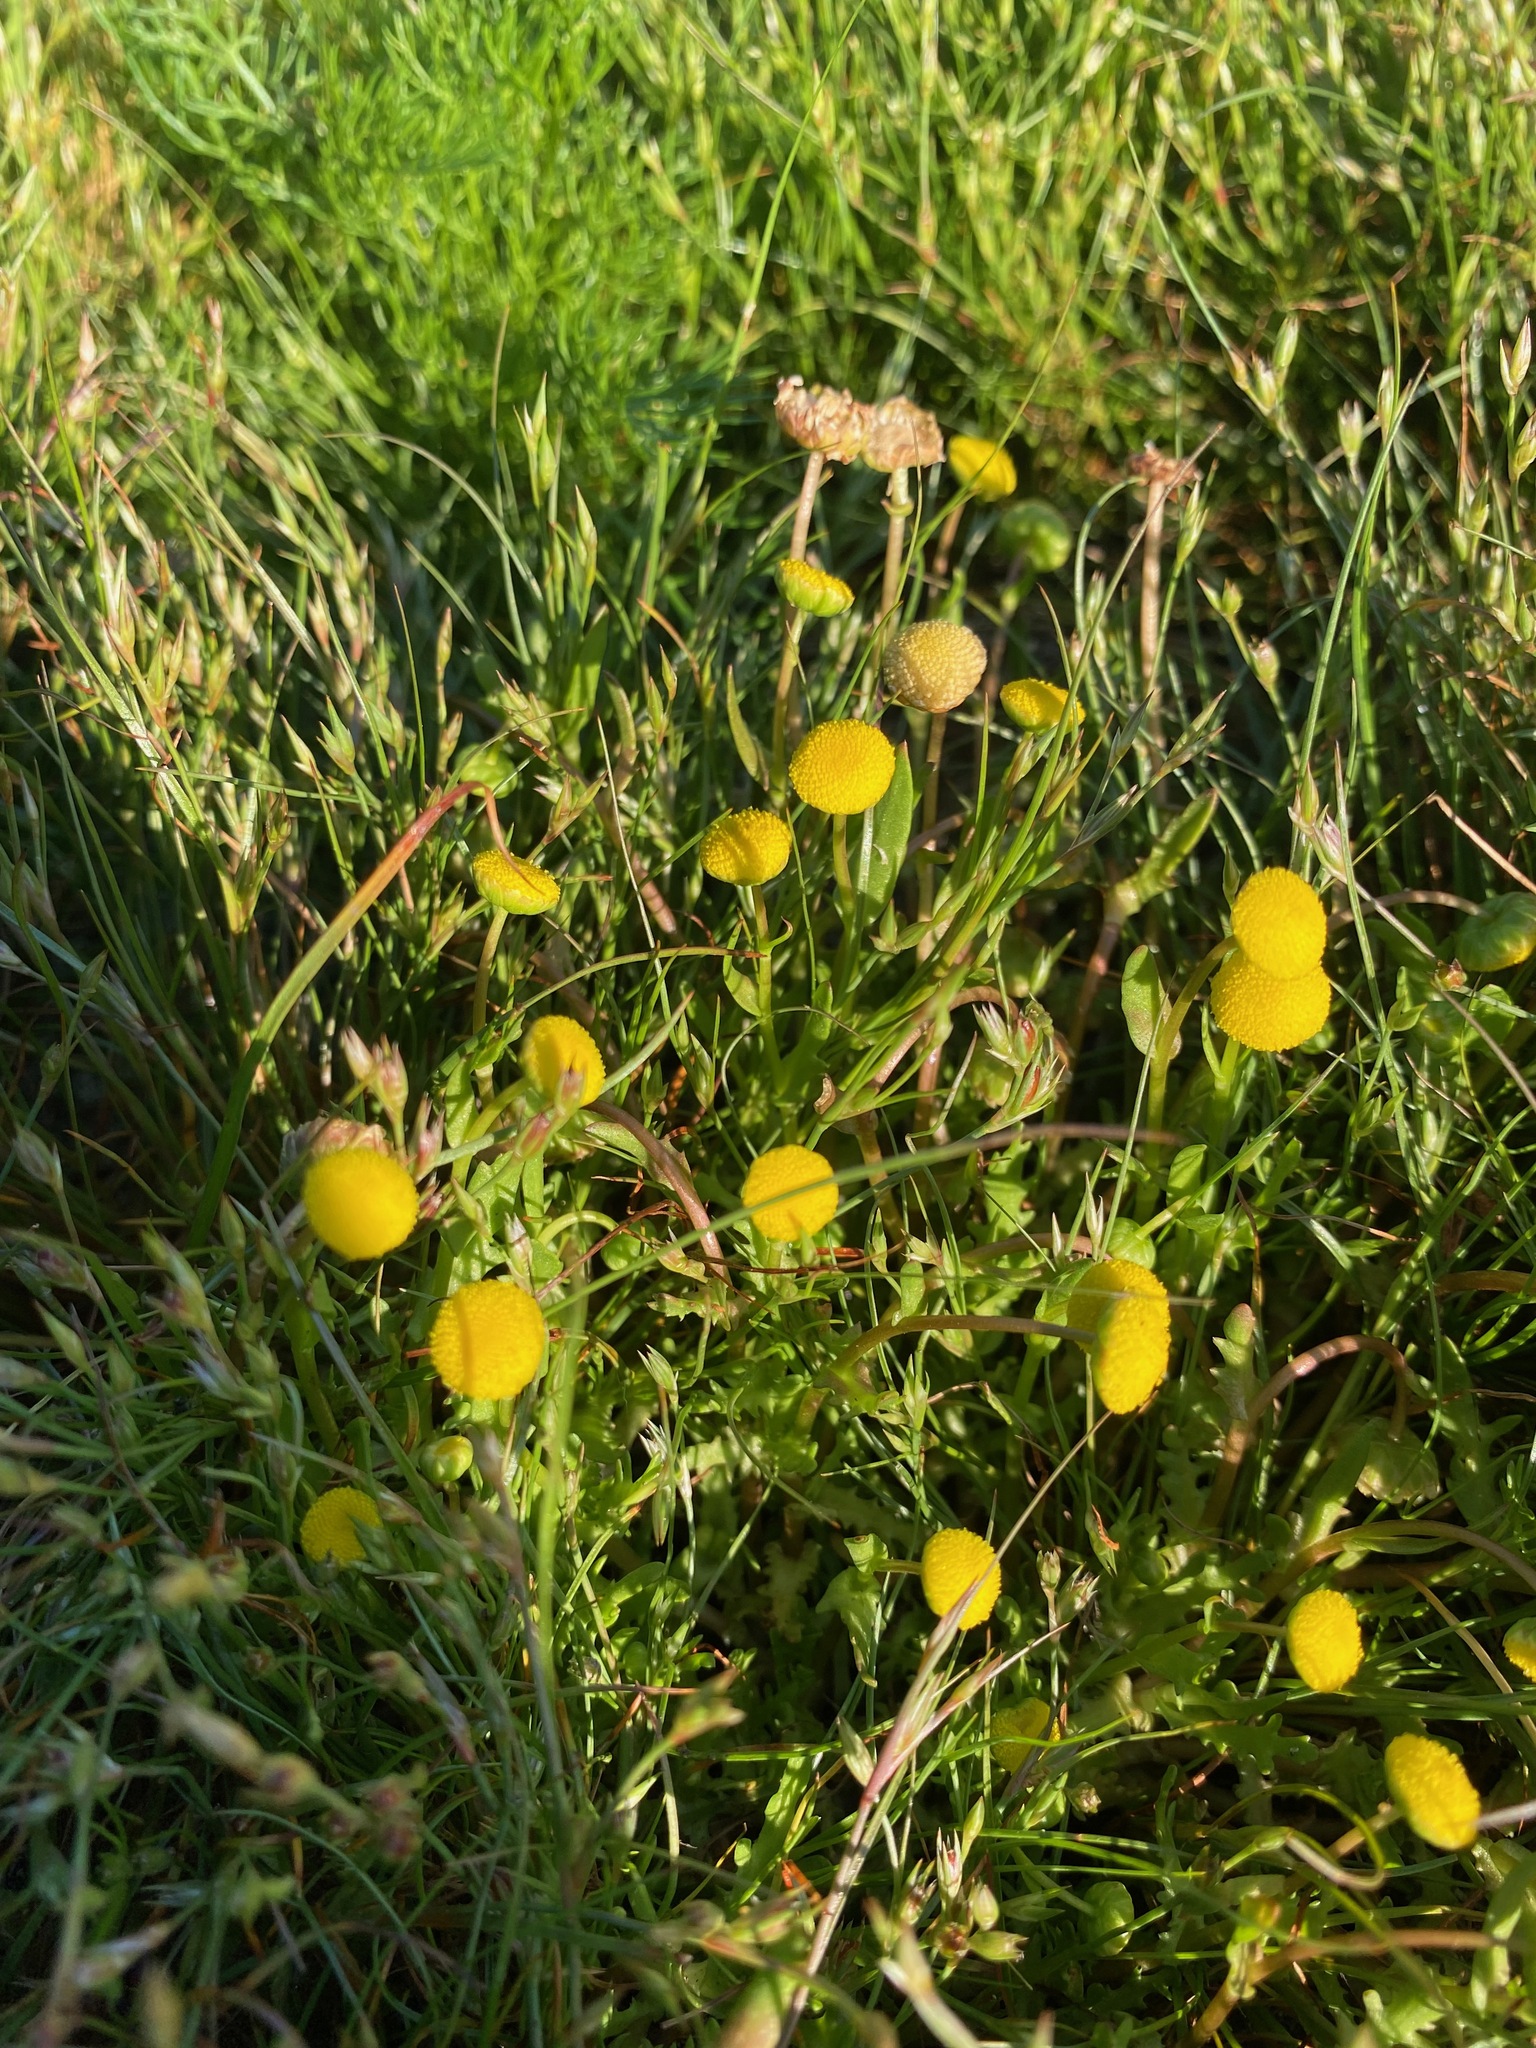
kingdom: Plantae
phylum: Tracheophyta
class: Magnoliopsida
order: Asterales
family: Asteraceae
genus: Cotula
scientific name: Cotula coronopifolia
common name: Buttonweed
